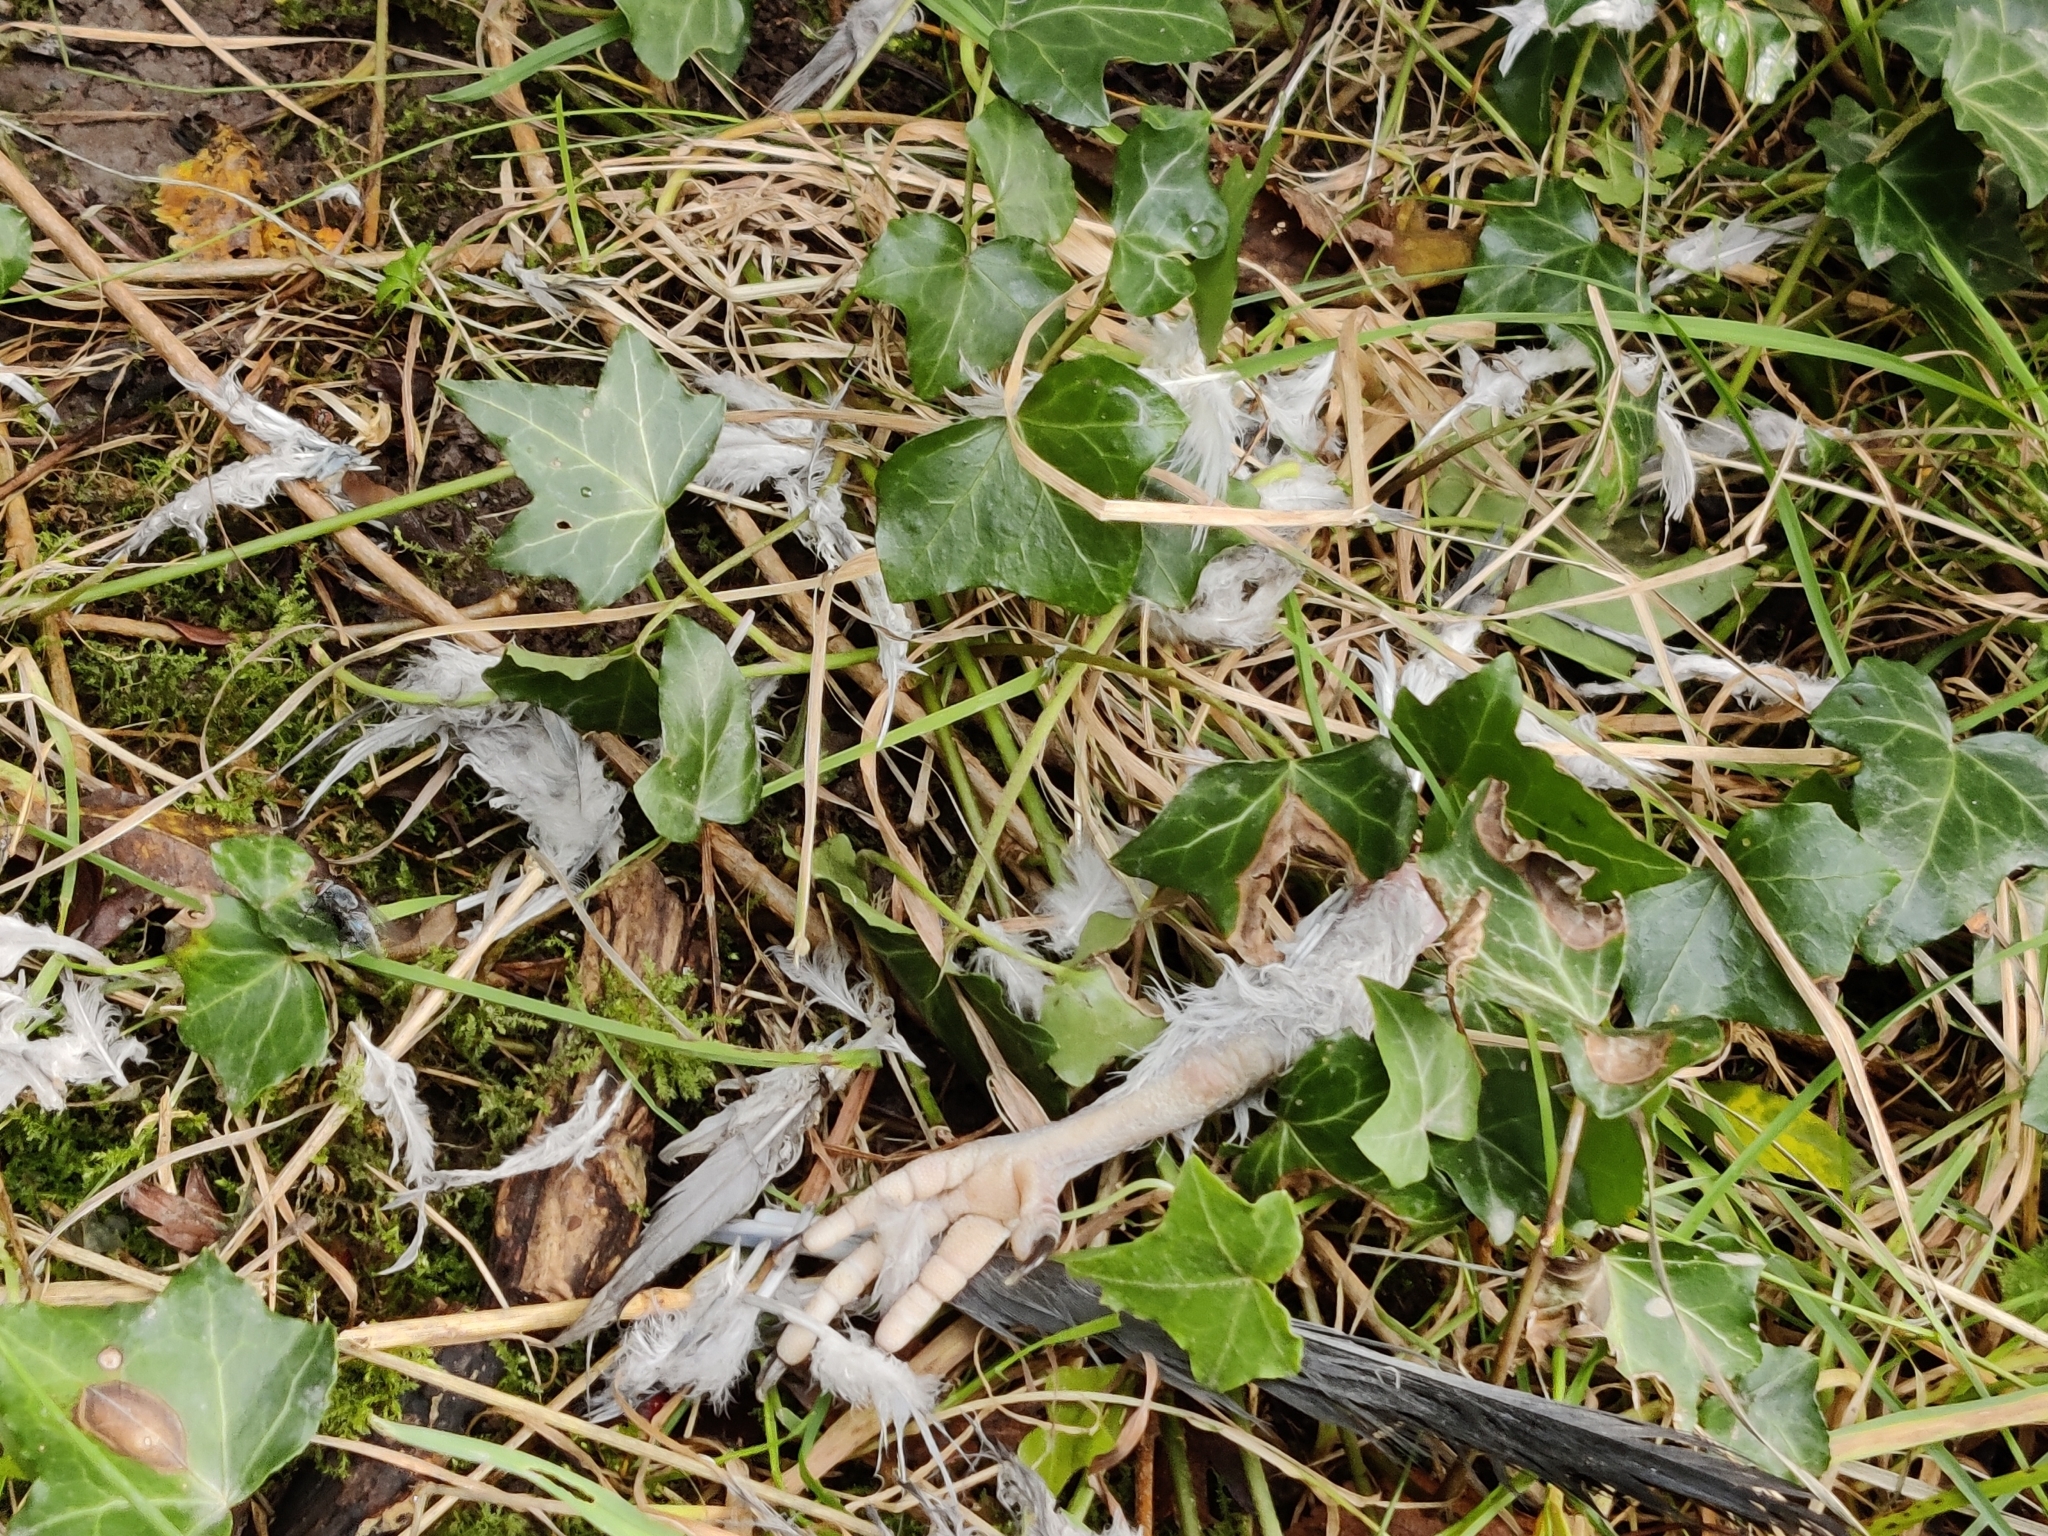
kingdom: Animalia
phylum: Chordata
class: Aves
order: Columbiformes
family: Columbidae
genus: Columba
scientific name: Columba palumbus
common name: Common wood pigeon
